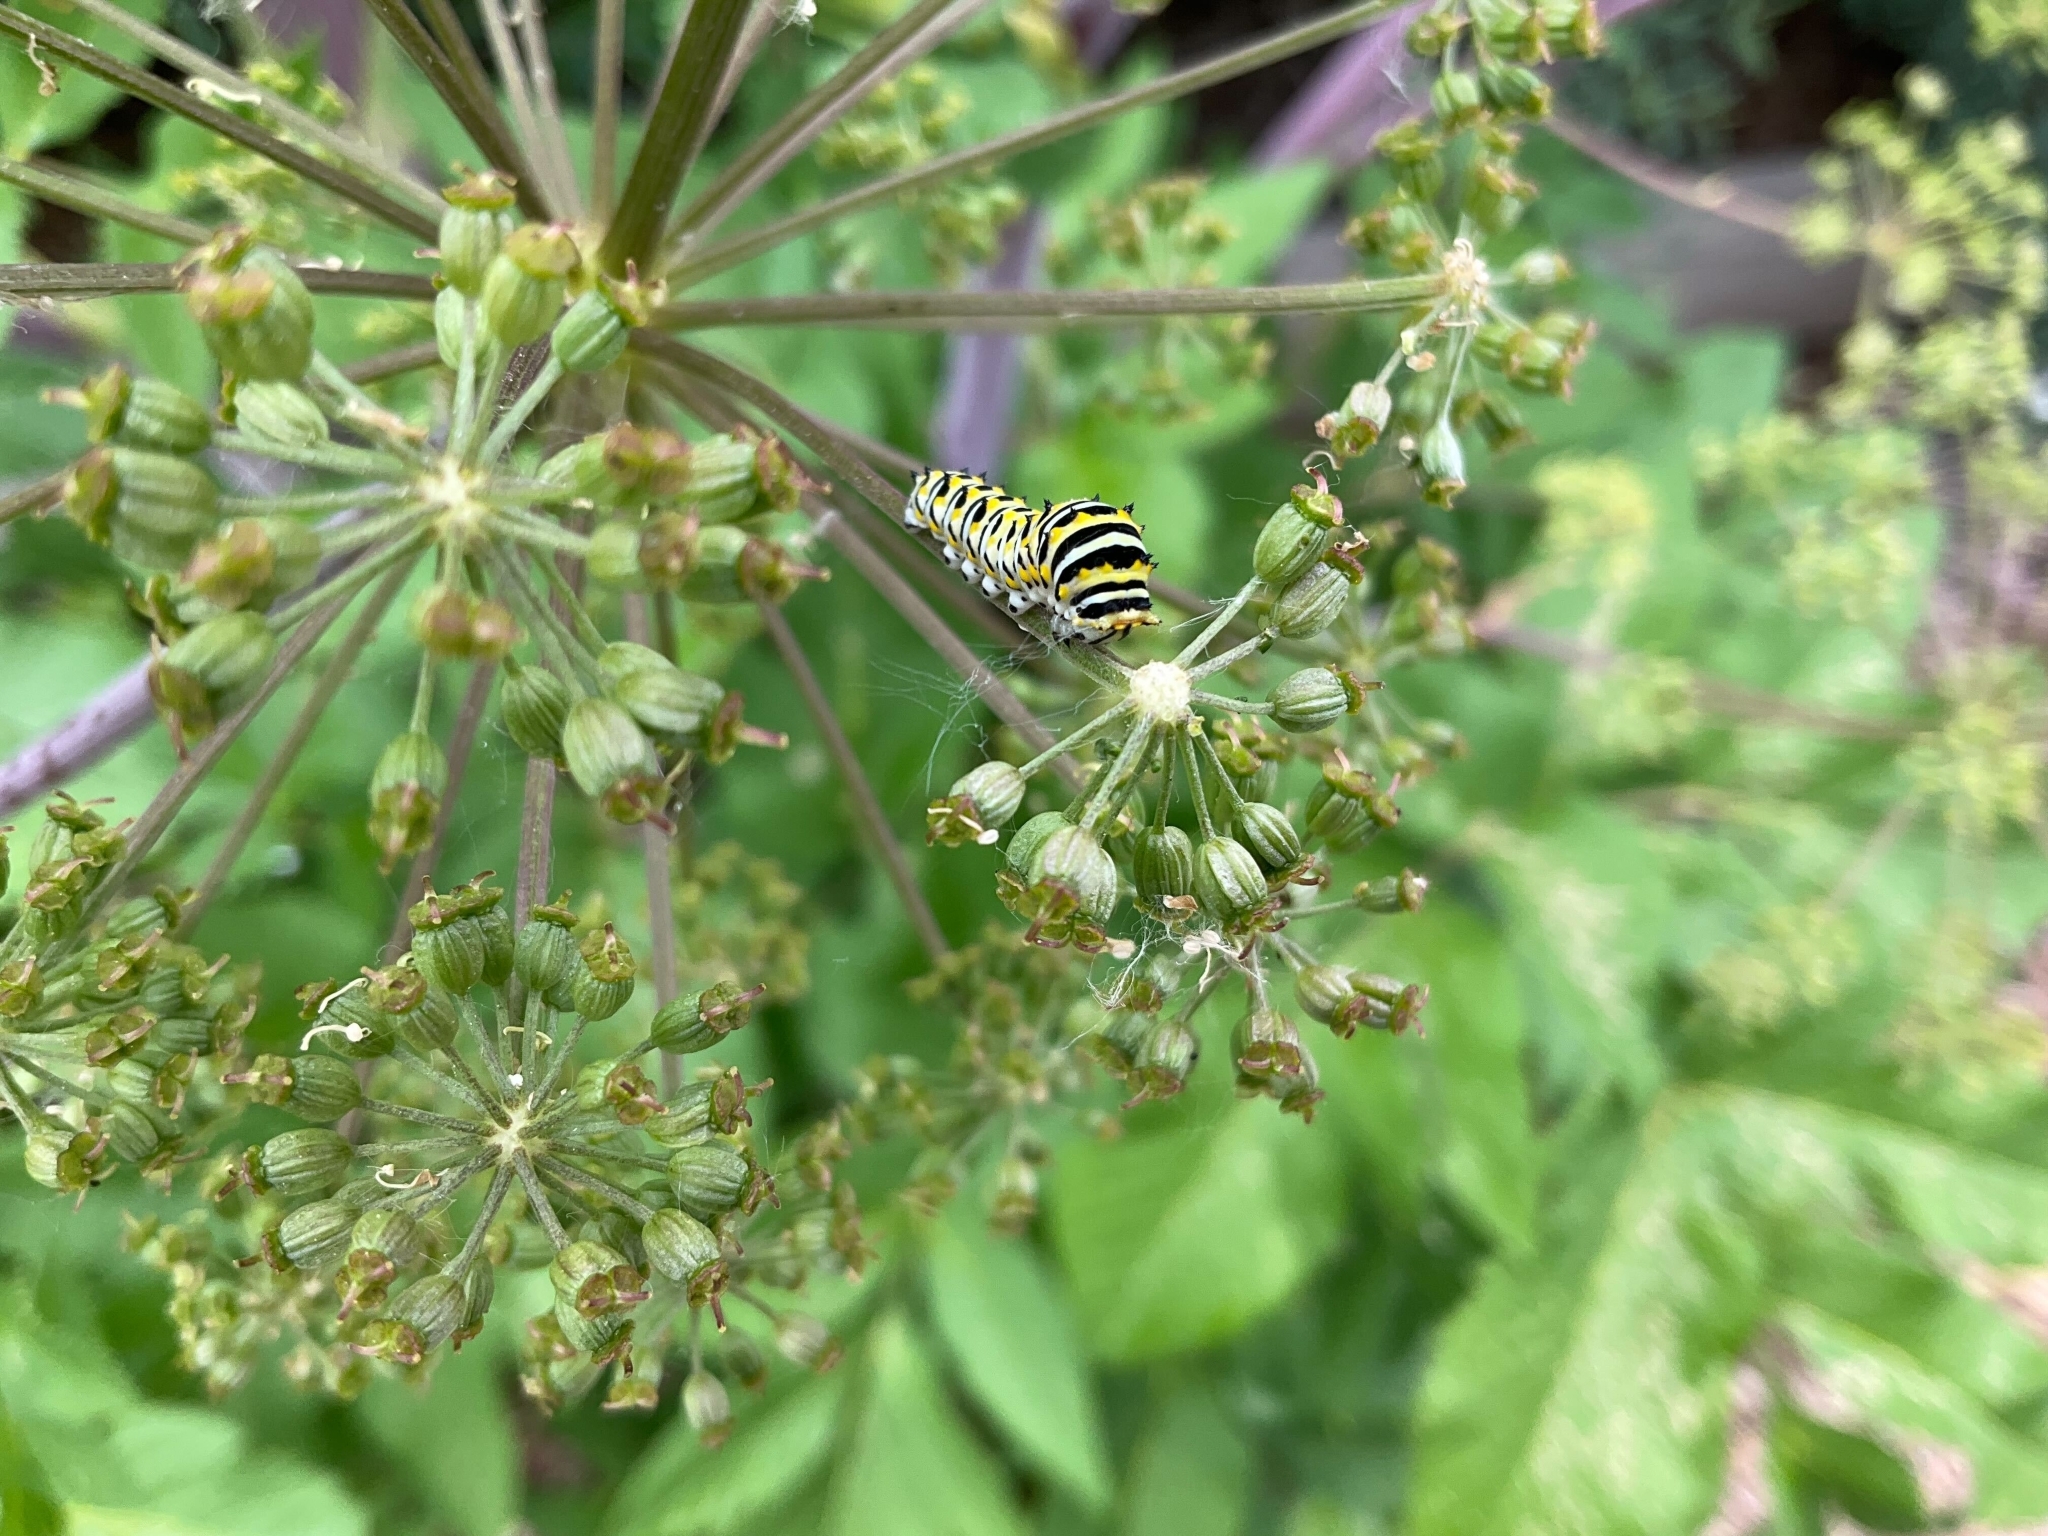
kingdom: Animalia
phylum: Arthropoda
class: Insecta
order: Lepidoptera
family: Papilionidae
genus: Papilio
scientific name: Papilio polyxenes
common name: Black swallowtail
